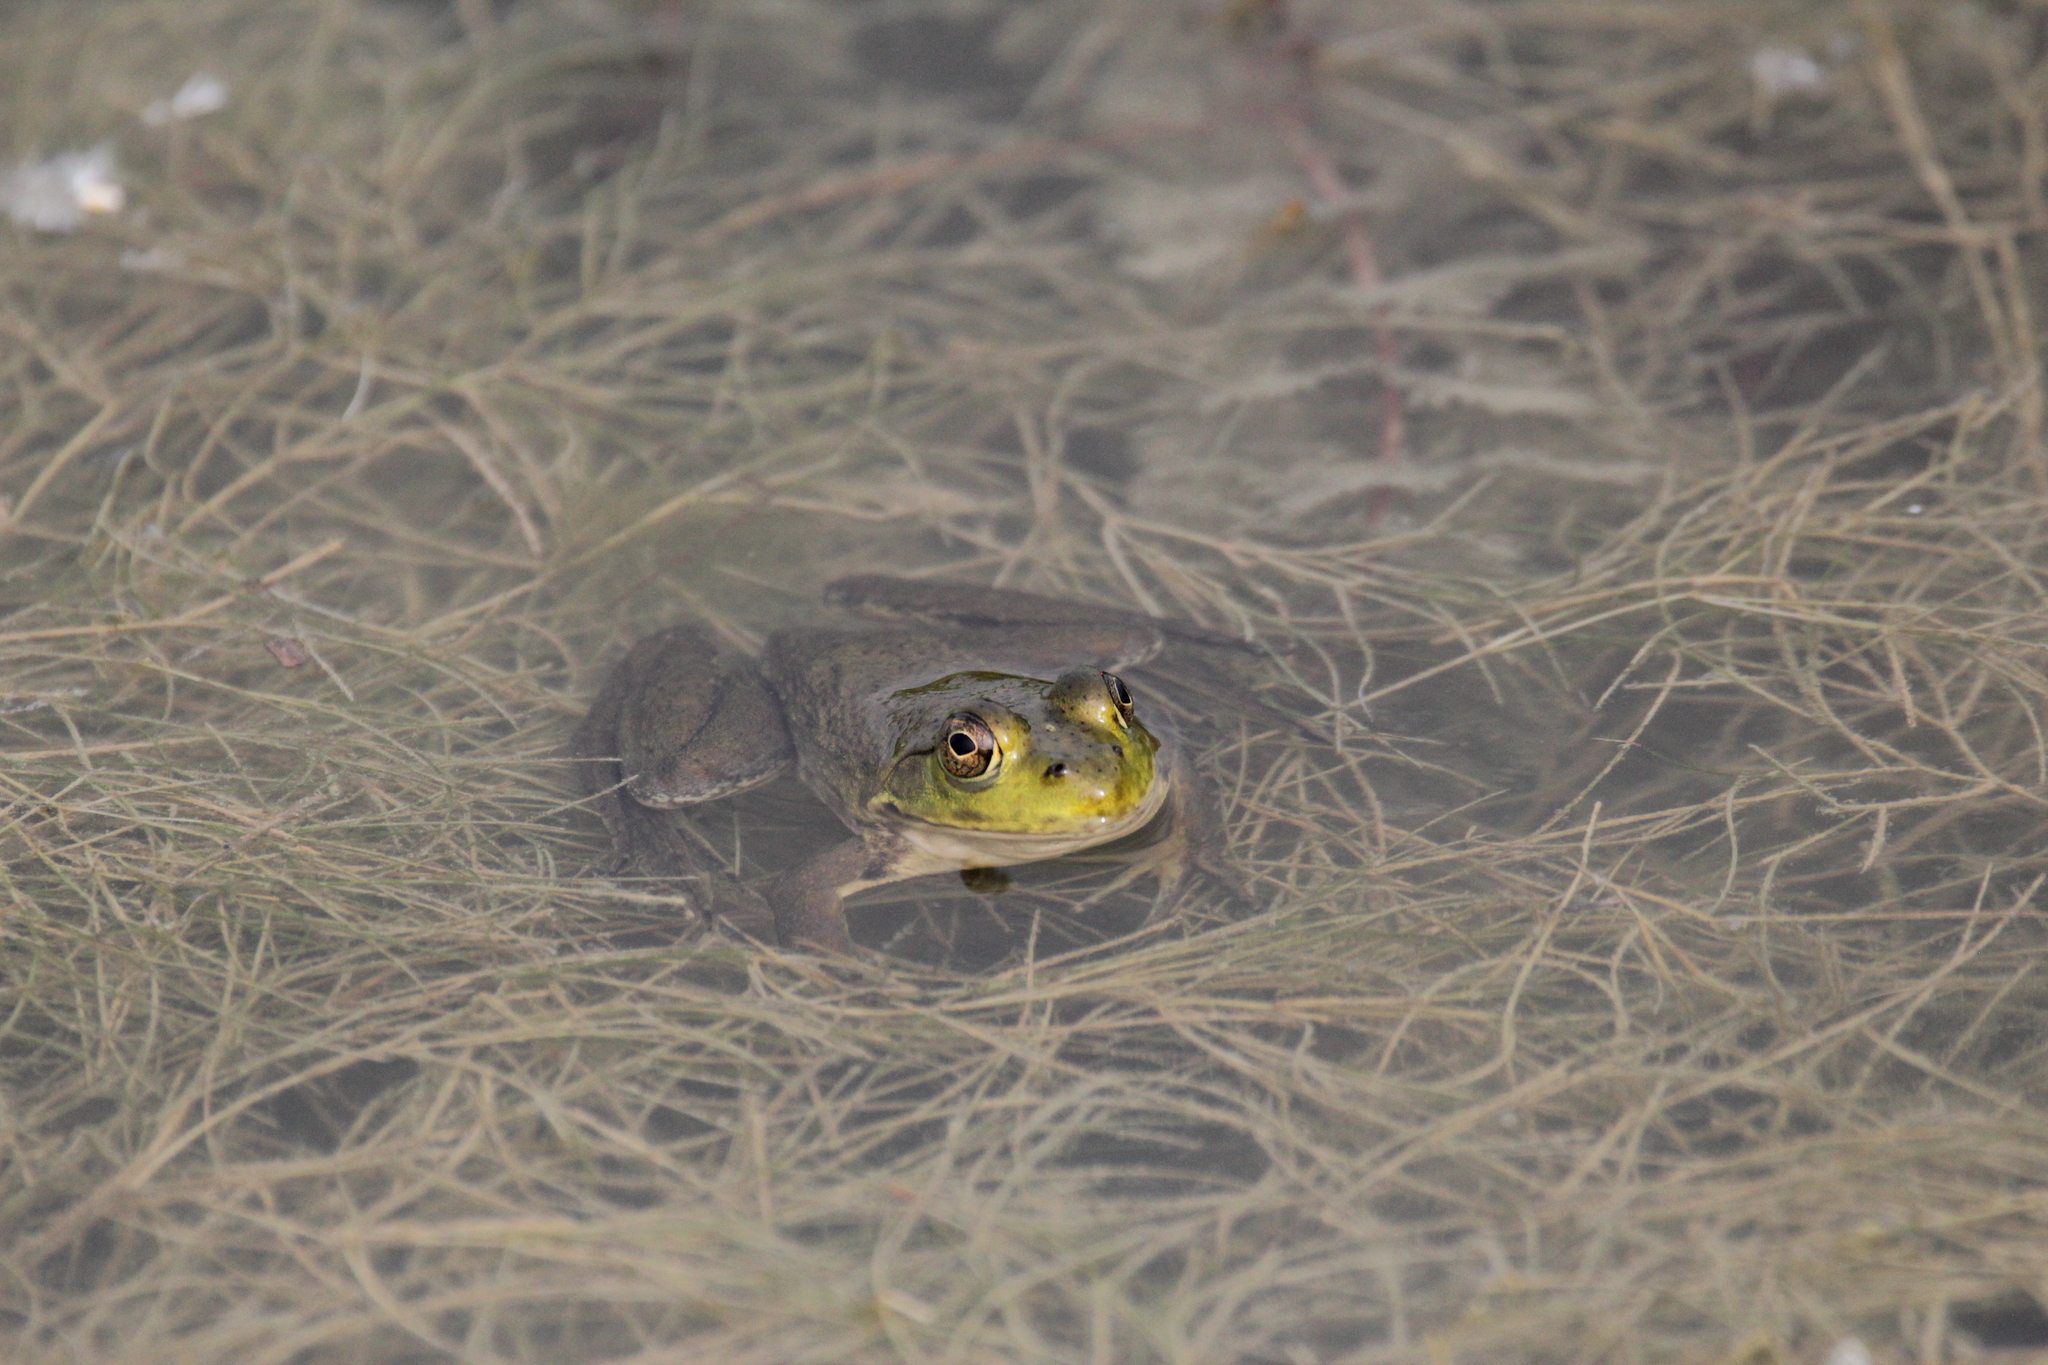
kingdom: Animalia
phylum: Chordata
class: Amphibia
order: Anura
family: Ranidae
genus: Lithobates
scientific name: Lithobates clamitans
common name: Green frog
